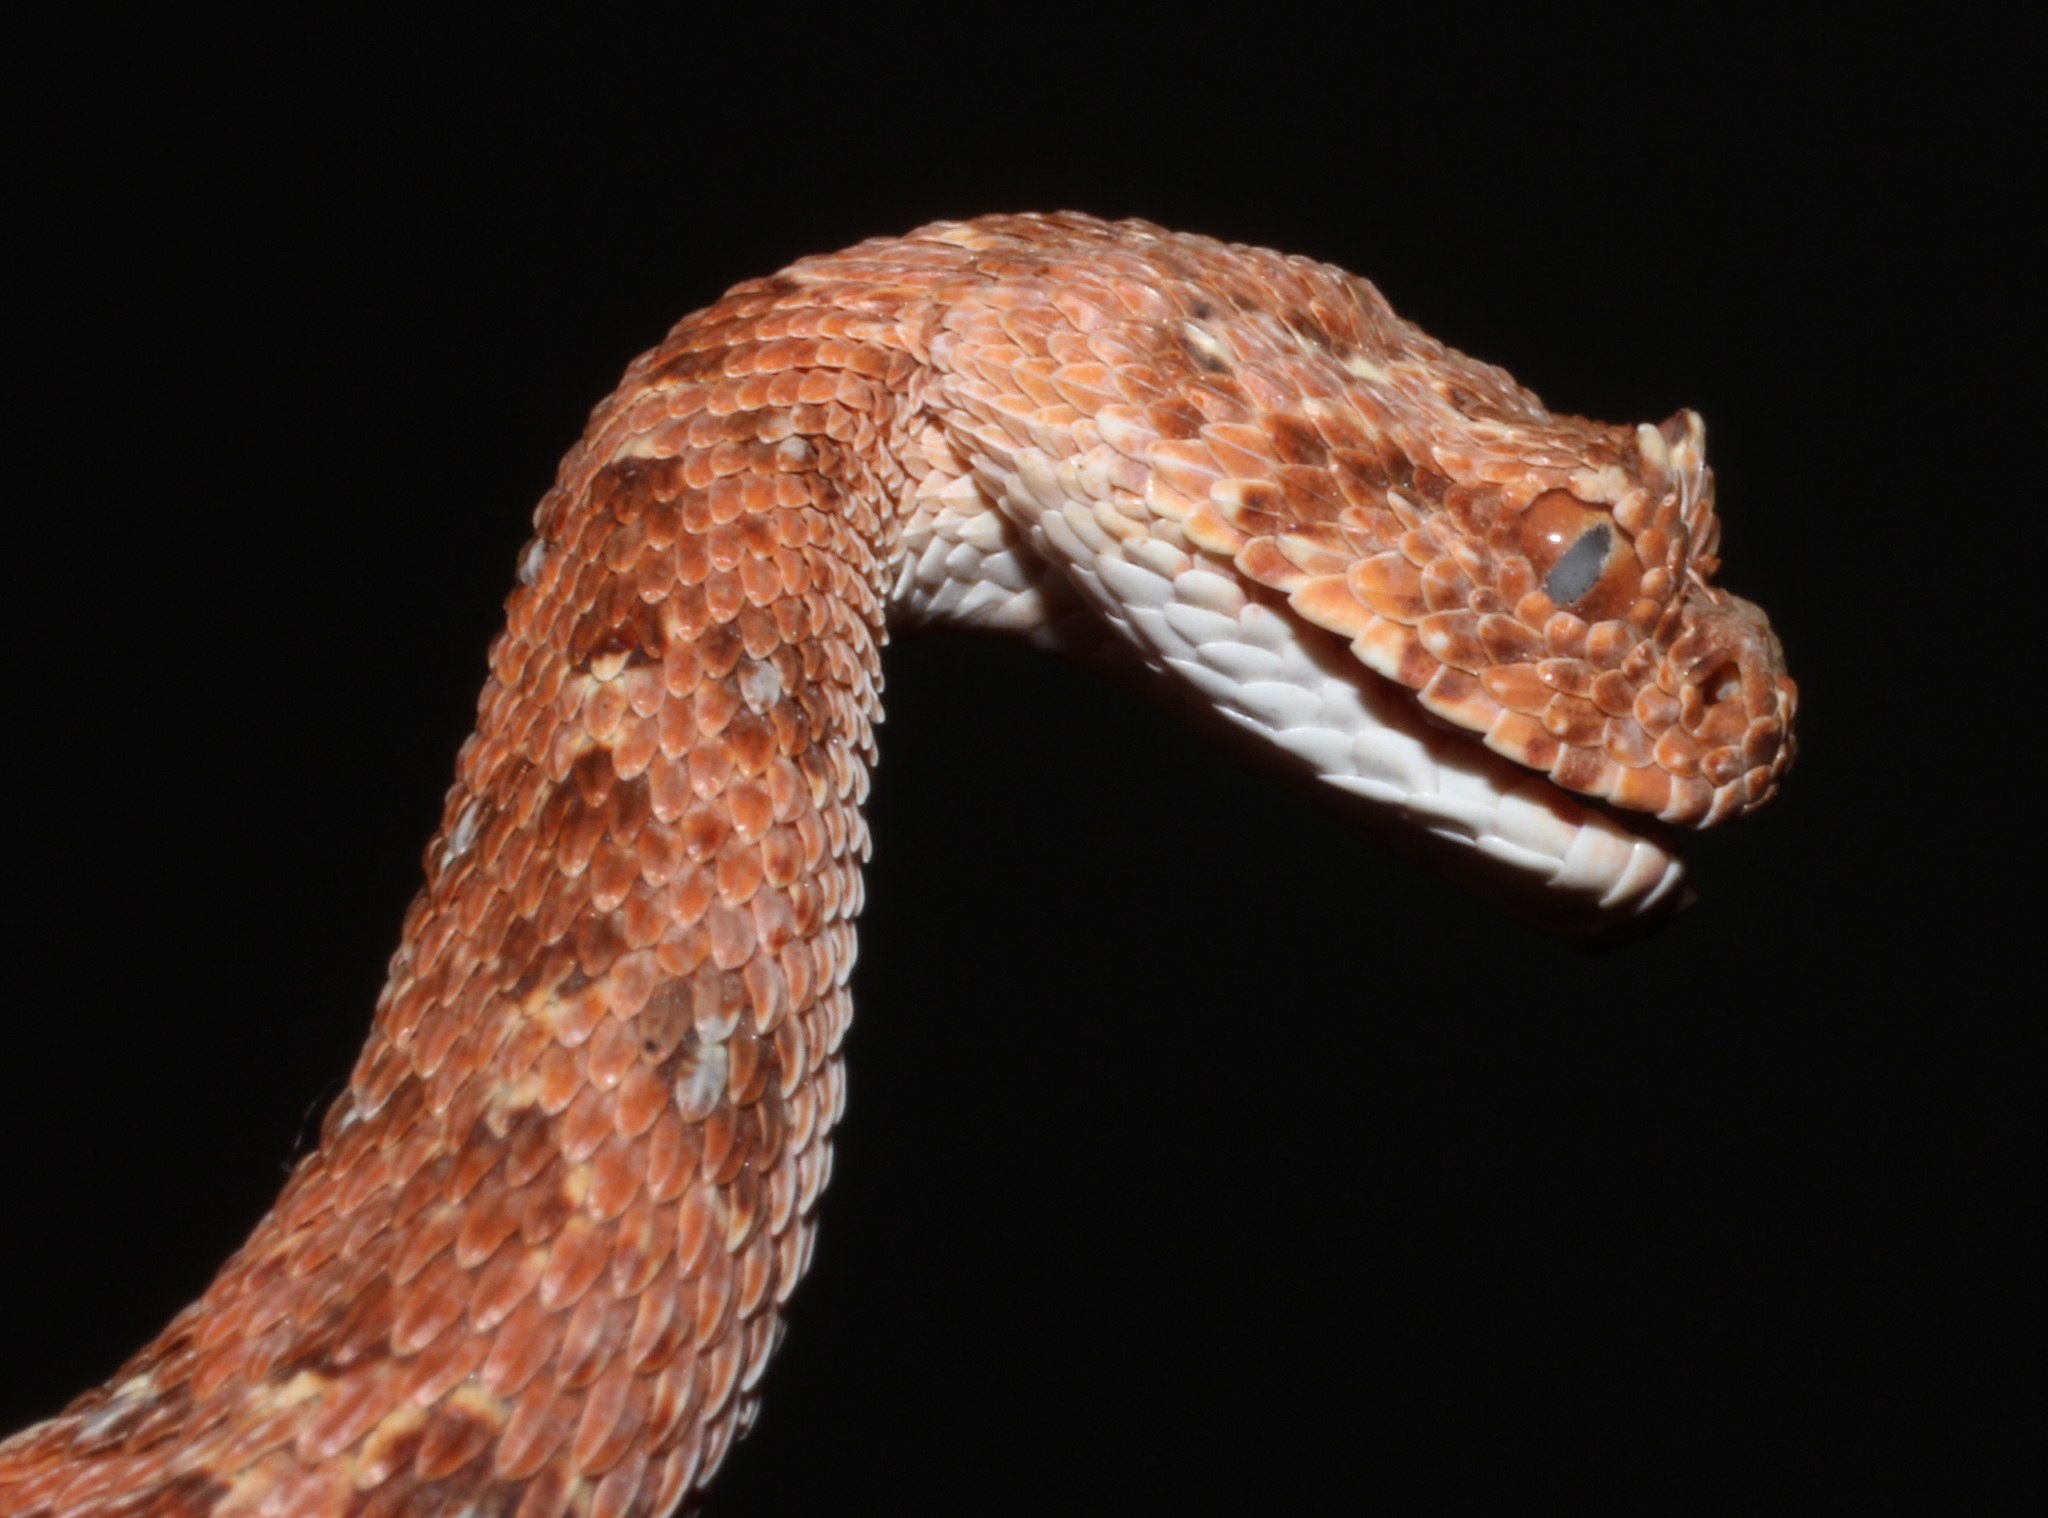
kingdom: Animalia
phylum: Chordata
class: Squamata
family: Viperidae
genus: Bitis
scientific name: Bitis caudalis
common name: Horned adder
